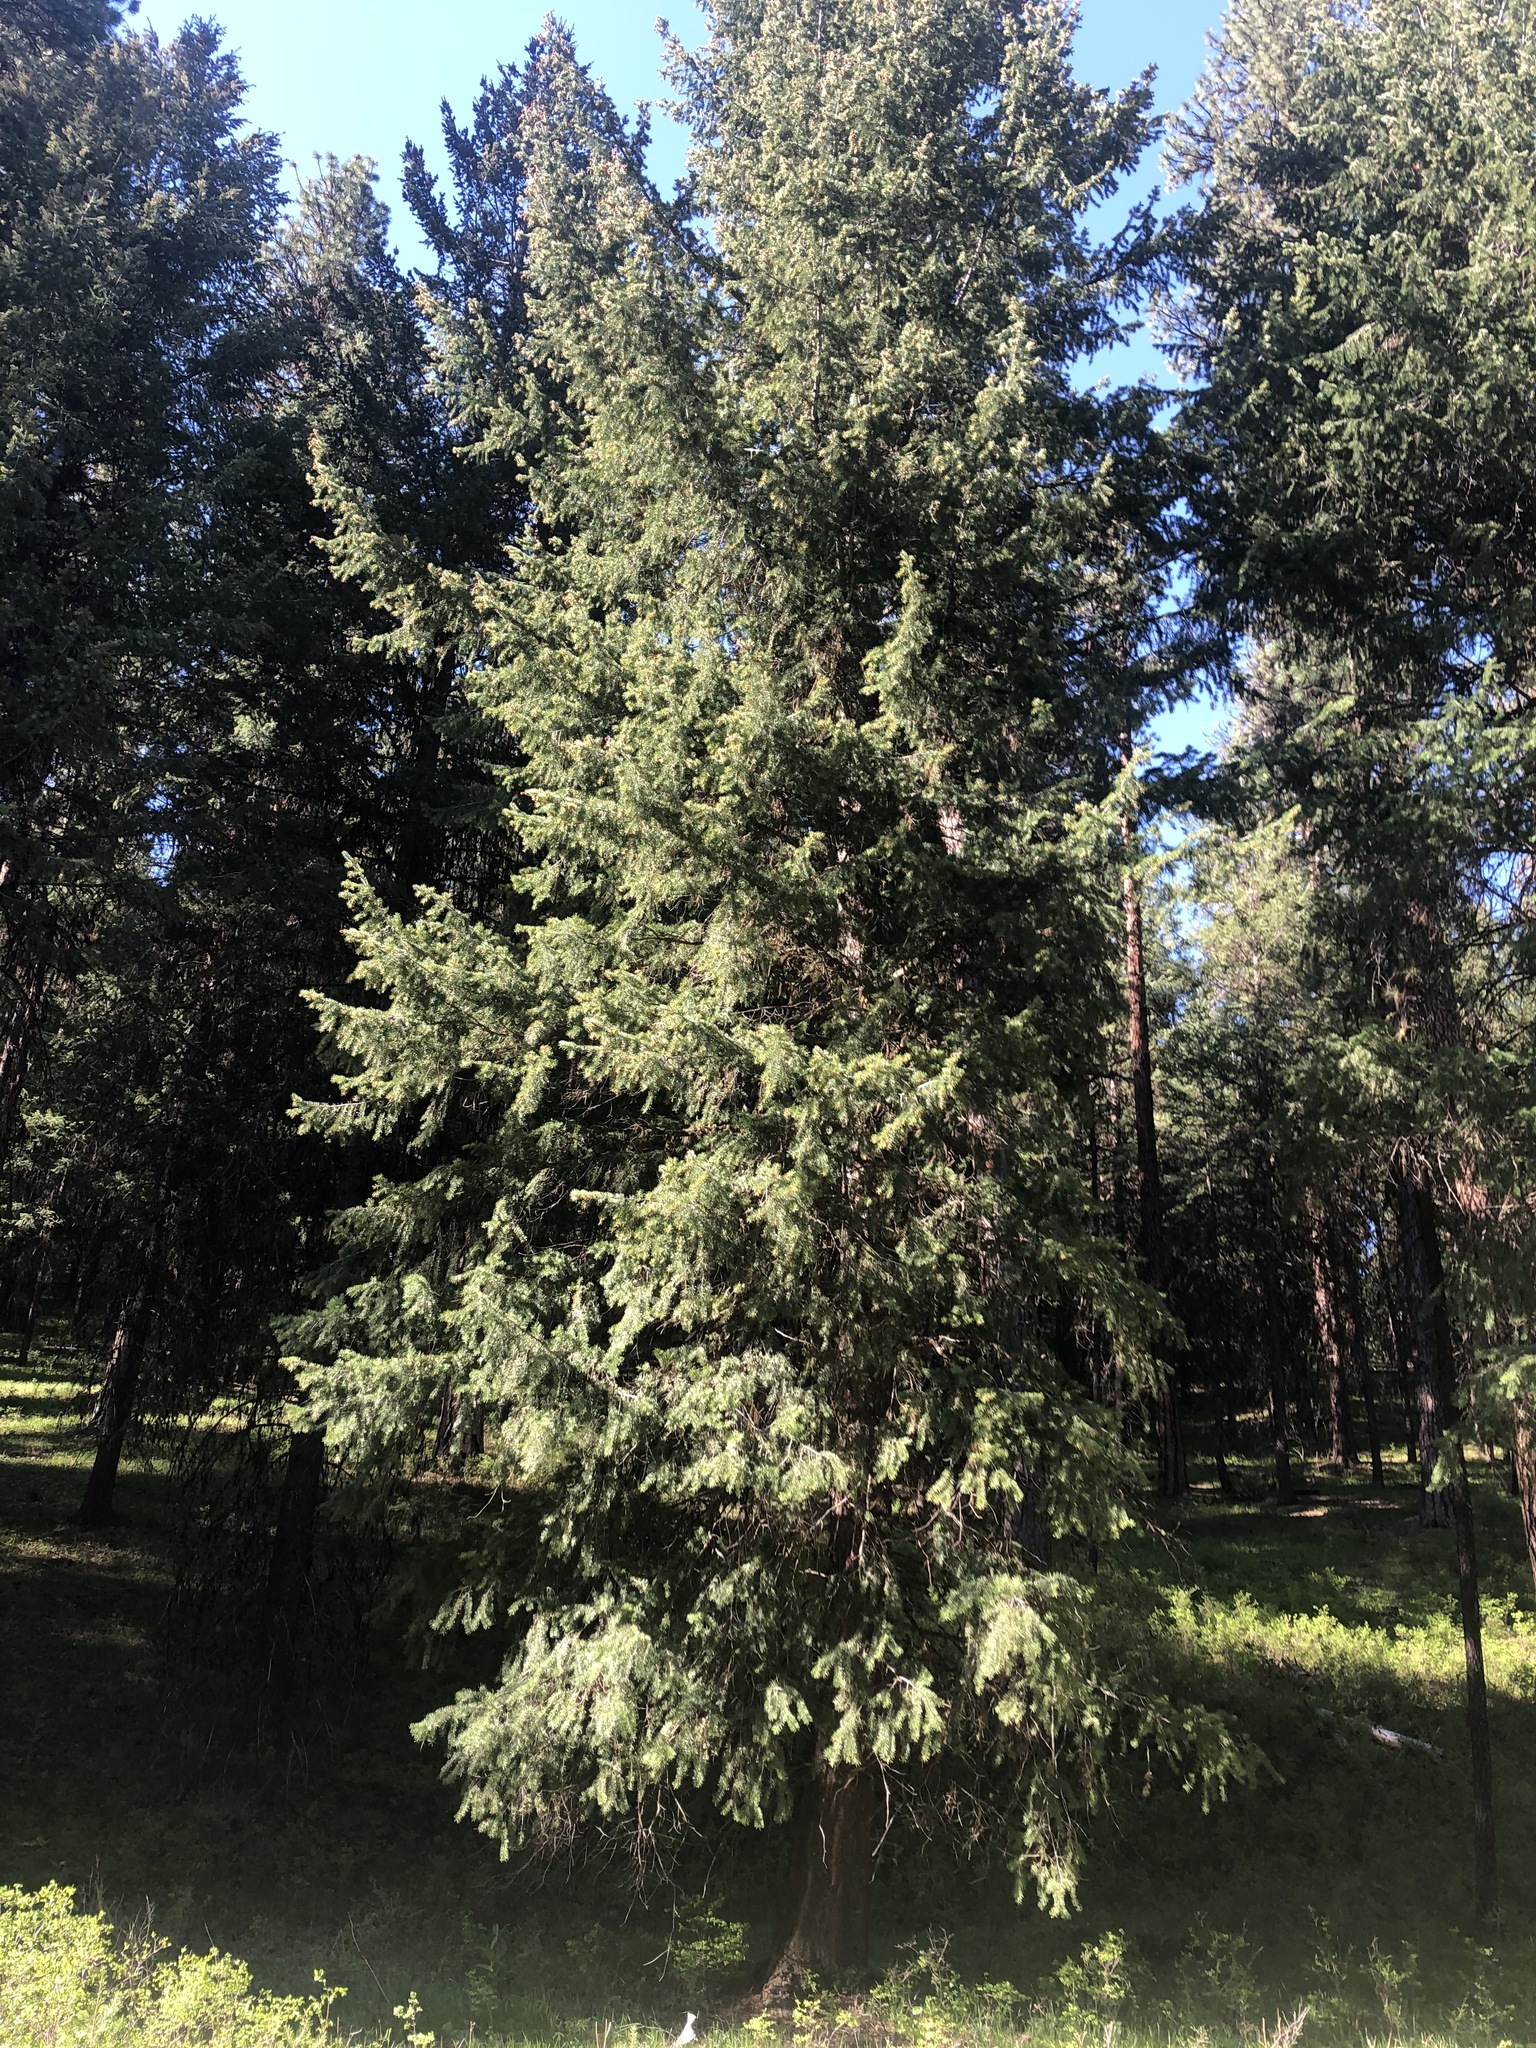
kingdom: Plantae
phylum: Tracheophyta
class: Pinopsida
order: Pinales
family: Pinaceae
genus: Pseudotsuga
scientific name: Pseudotsuga menziesii
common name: Douglas fir
